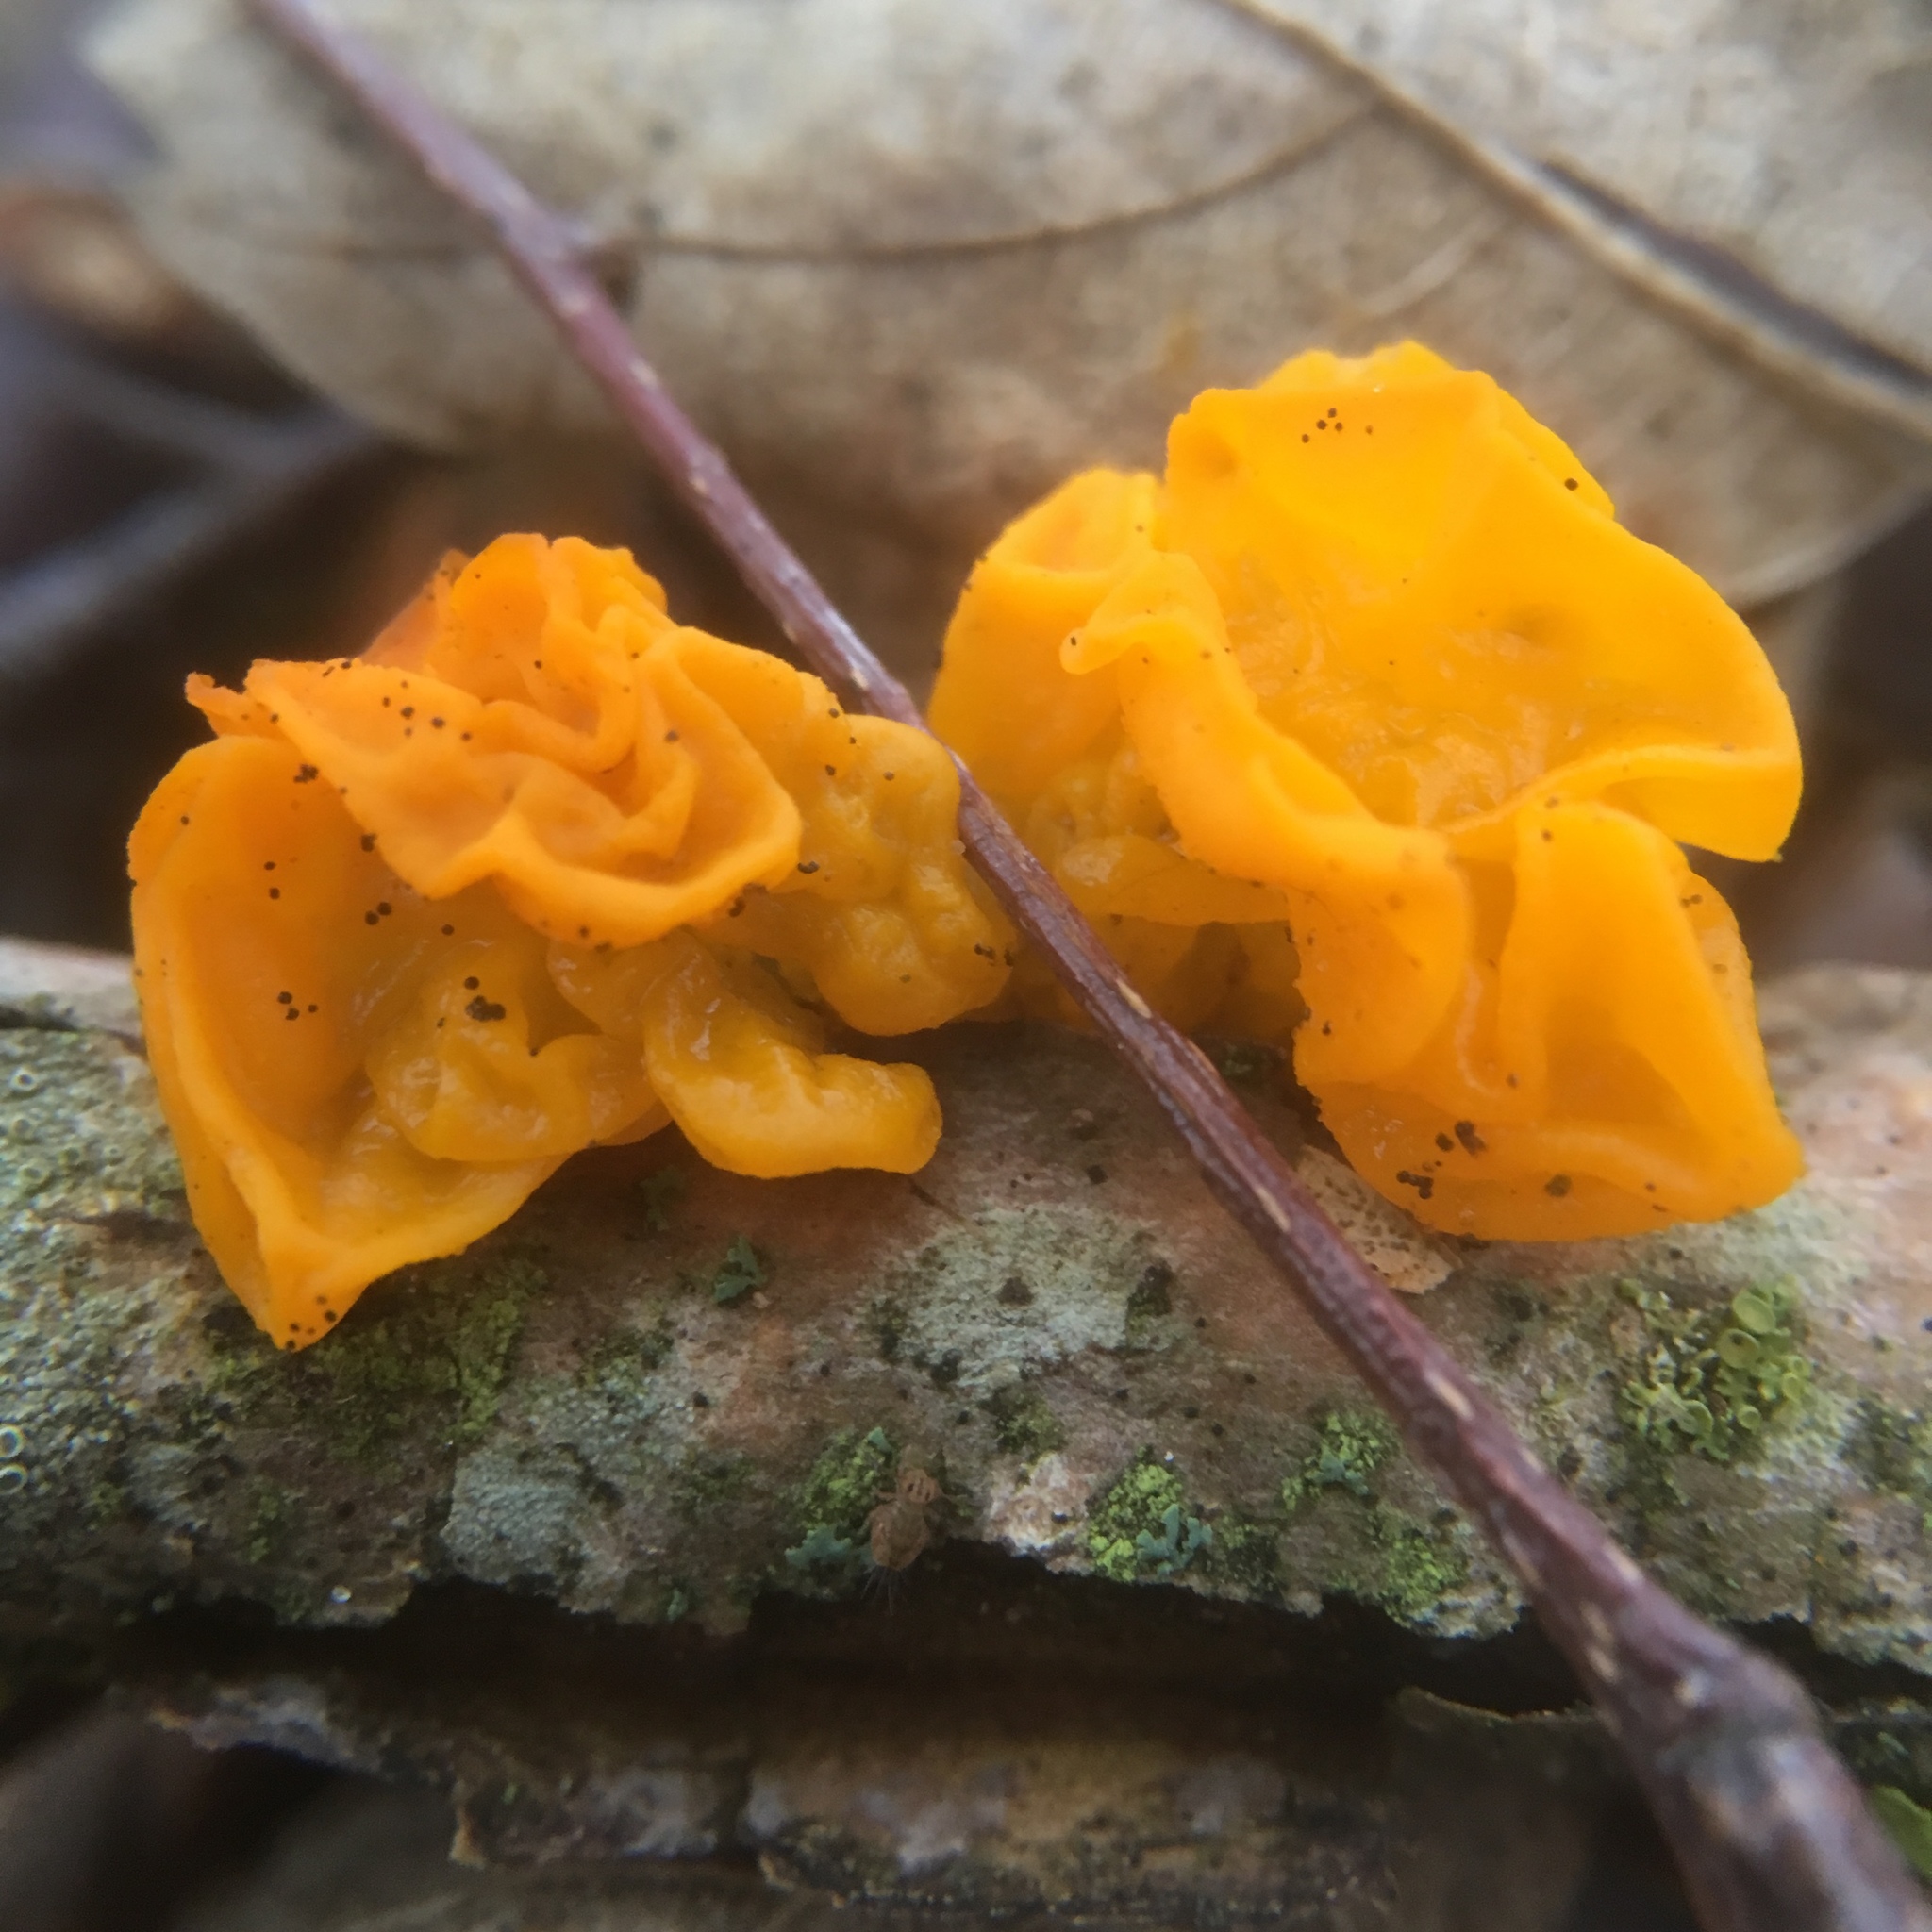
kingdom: Fungi
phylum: Basidiomycota
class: Tremellomycetes
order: Tremellales
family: Tremellaceae
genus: Tremella
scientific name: Tremella mesenterica
